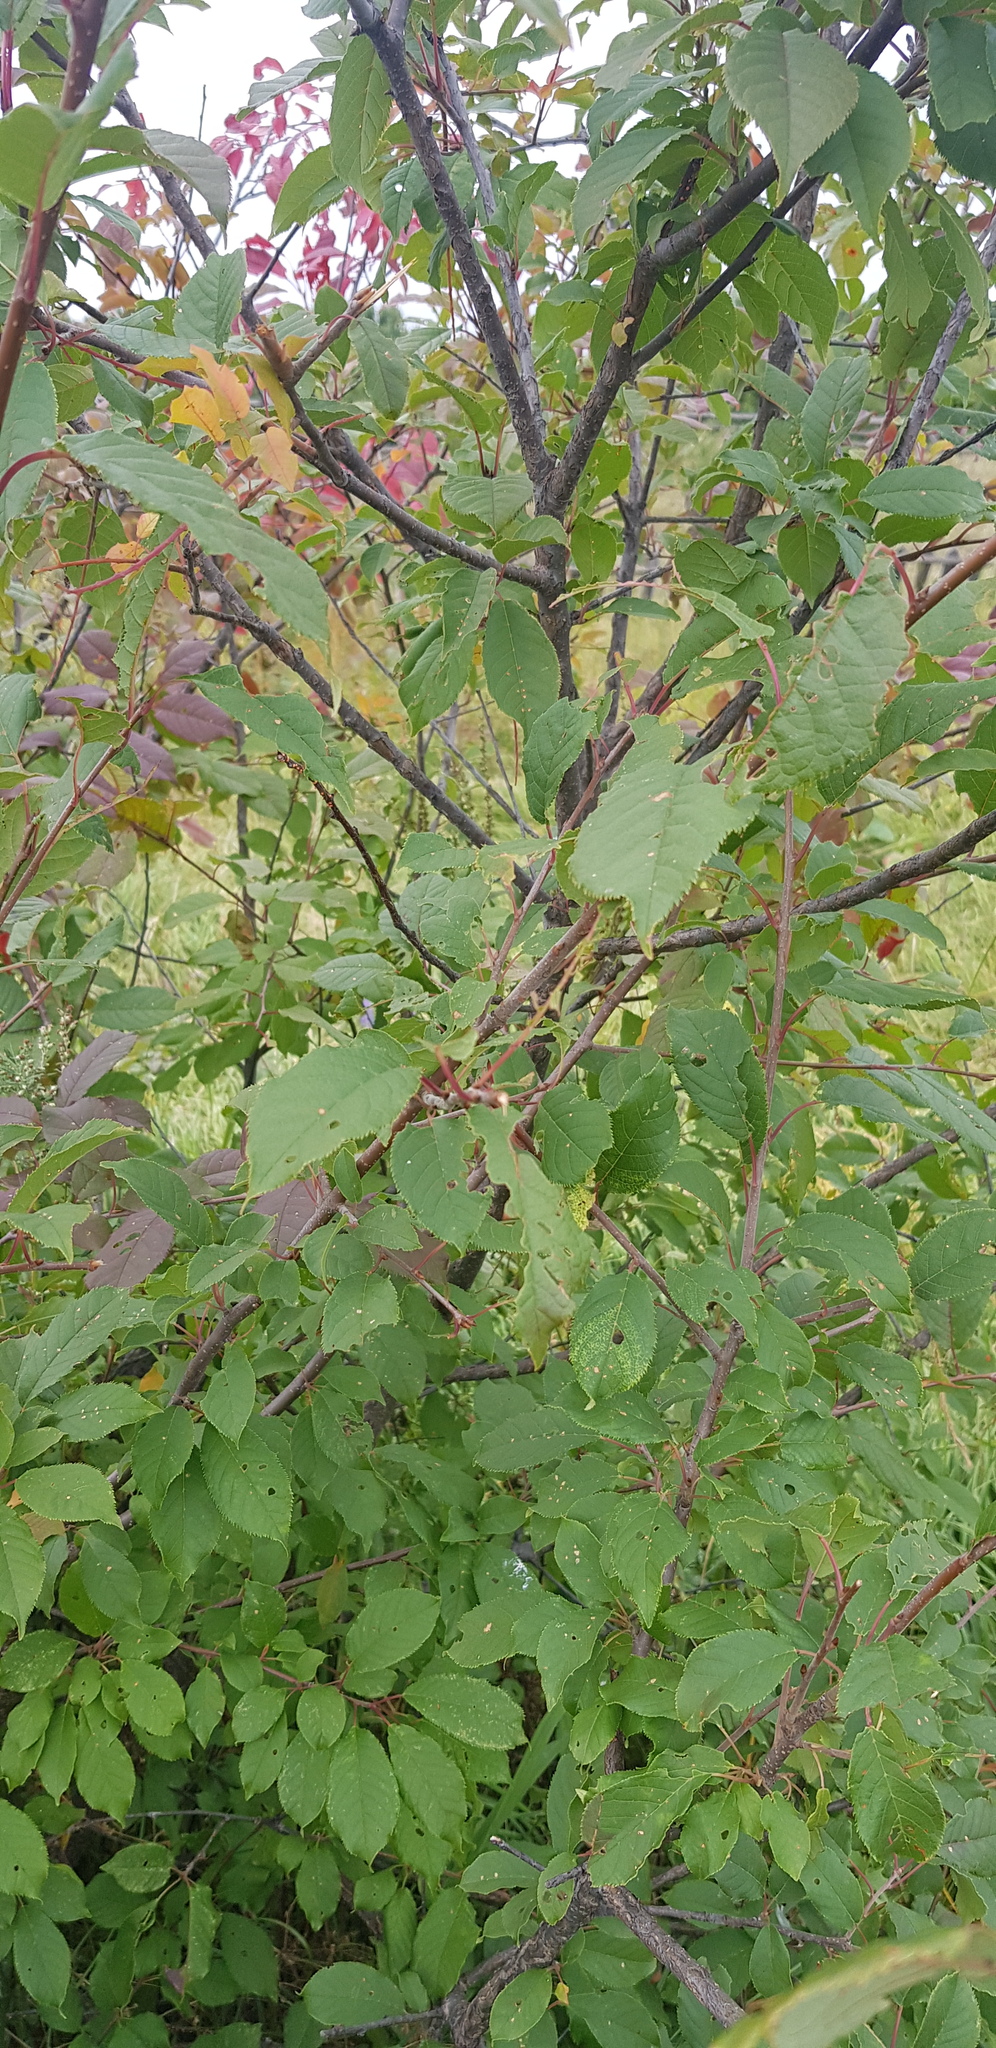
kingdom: Plantae
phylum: Tracheophyta
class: Magnoliopsida
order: Rosales
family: Rosaceae
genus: Prunus
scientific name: Prunus padus
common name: Bird cherry
